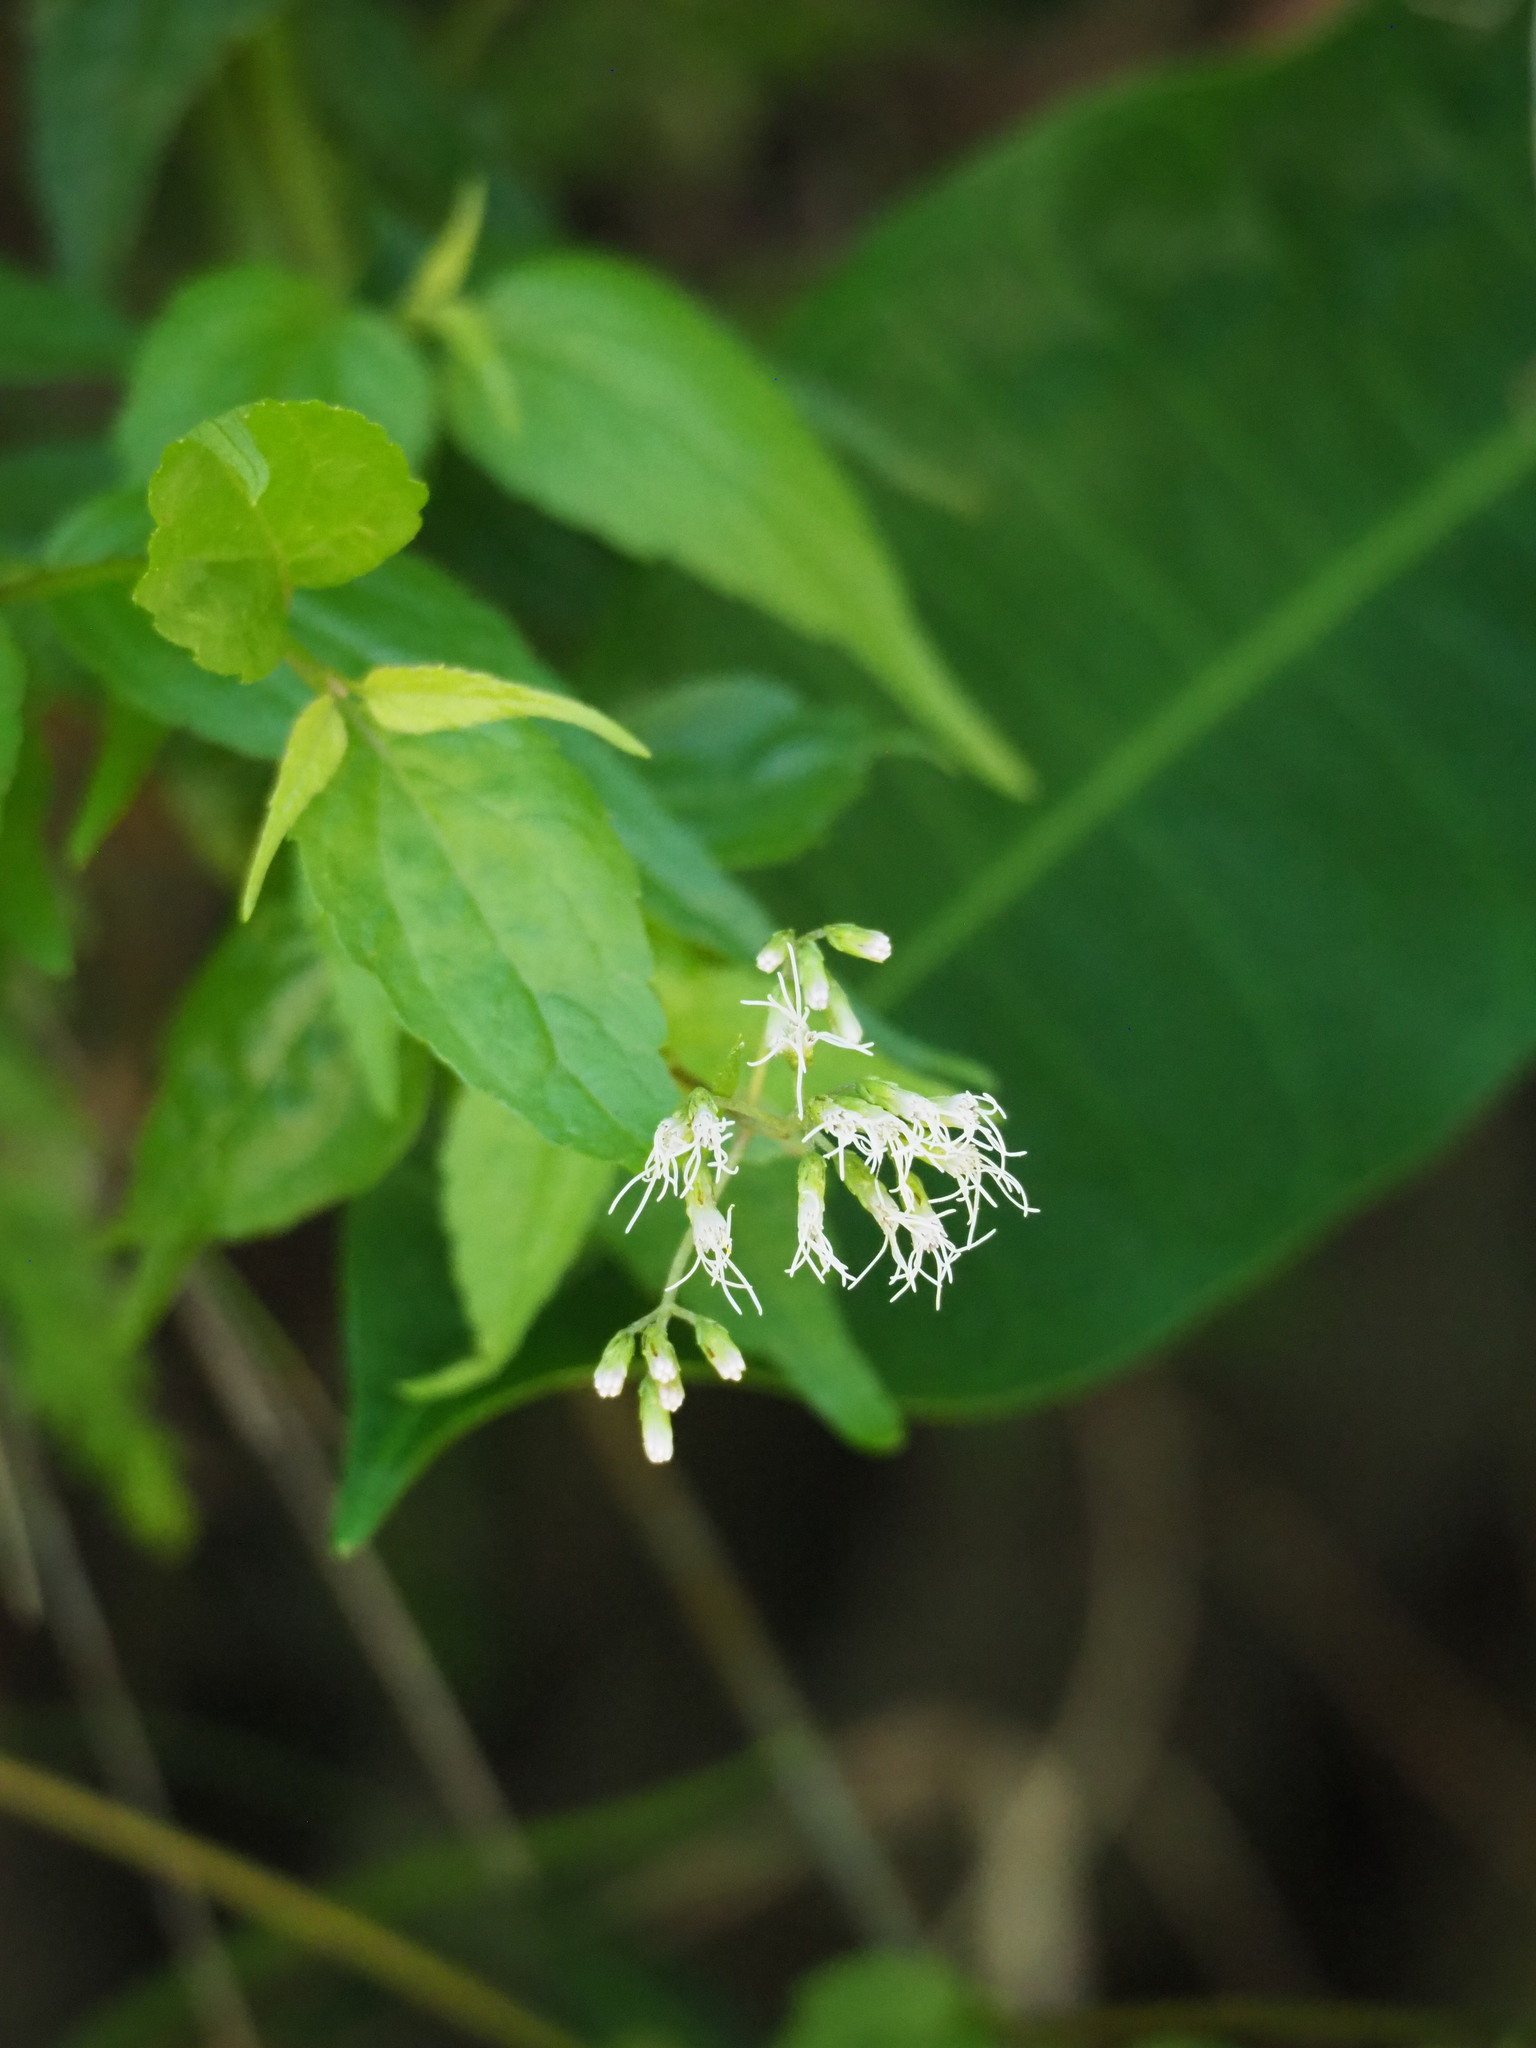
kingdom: Plantae
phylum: Tracheophyta
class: Magnoliopsida
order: Asterales
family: Asteraceae
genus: Eupatorium
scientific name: Eupatorium tashiroi
